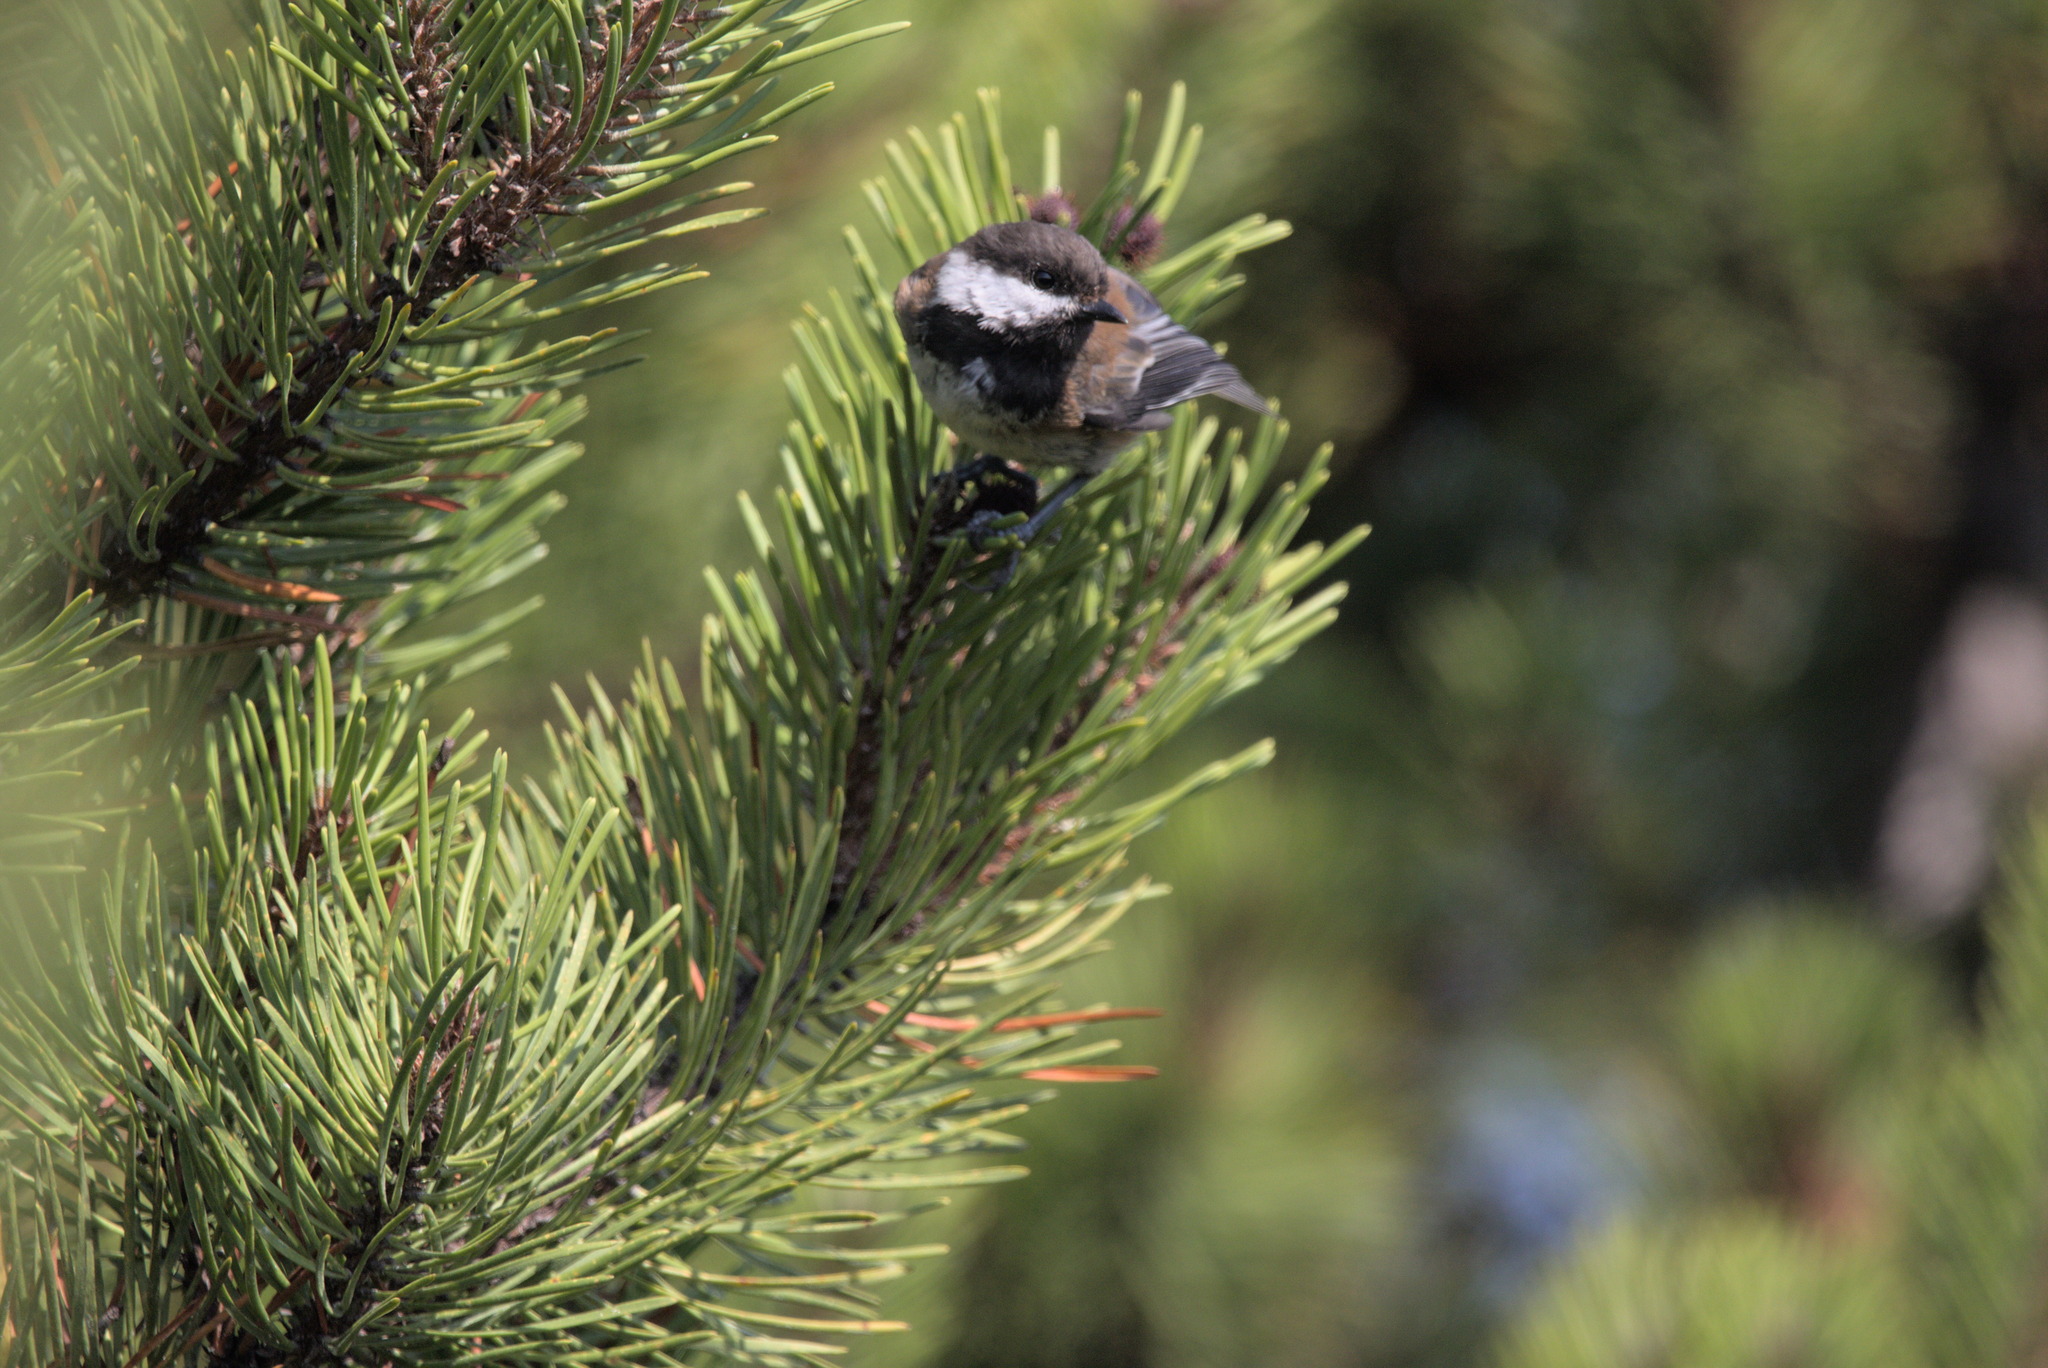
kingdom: Animalia
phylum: Chordata
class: Aves
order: Passeriformes
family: Paridae
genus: Poecile
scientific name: Poecile rufescens
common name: Chestnut-backed chickadee
